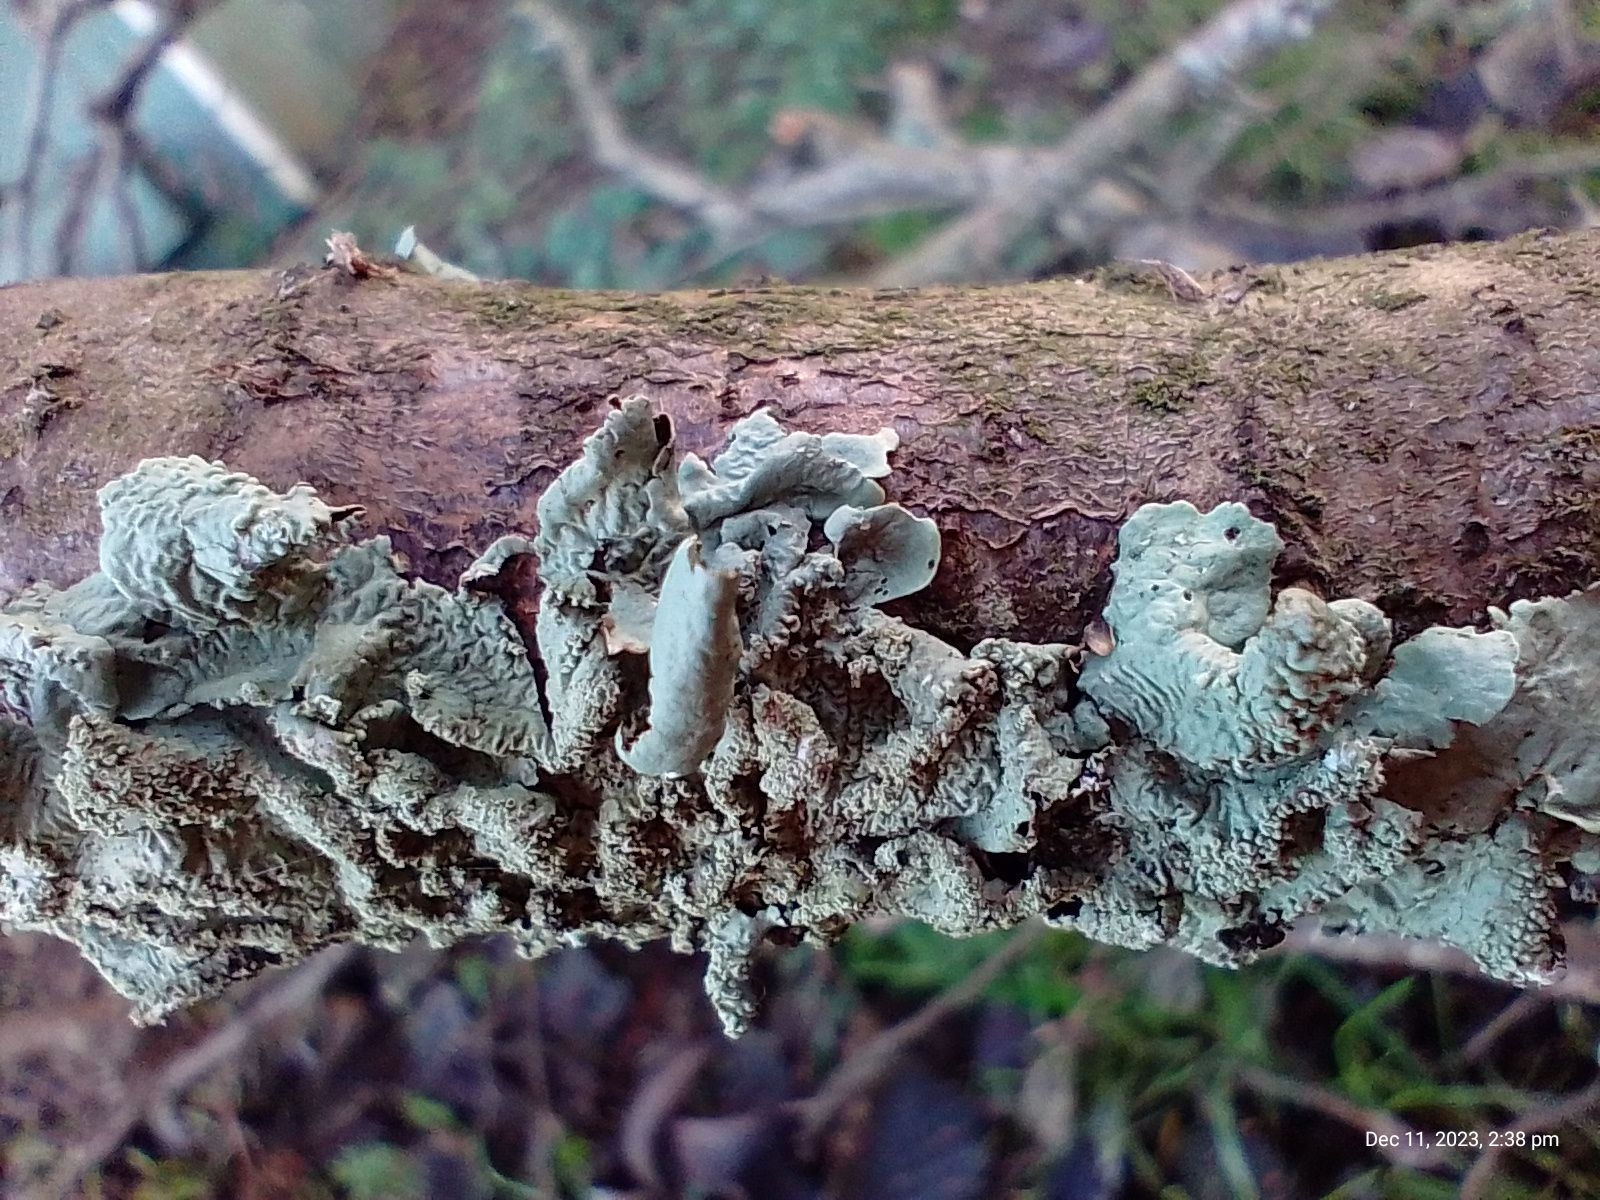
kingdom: Fungi
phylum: Ascomycota
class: Lecanoromycetes
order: Lecanorales
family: Parmeliaceae
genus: Flavoparmelia
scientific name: Flavoparmelia caperata
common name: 40-mile per hour lichen
